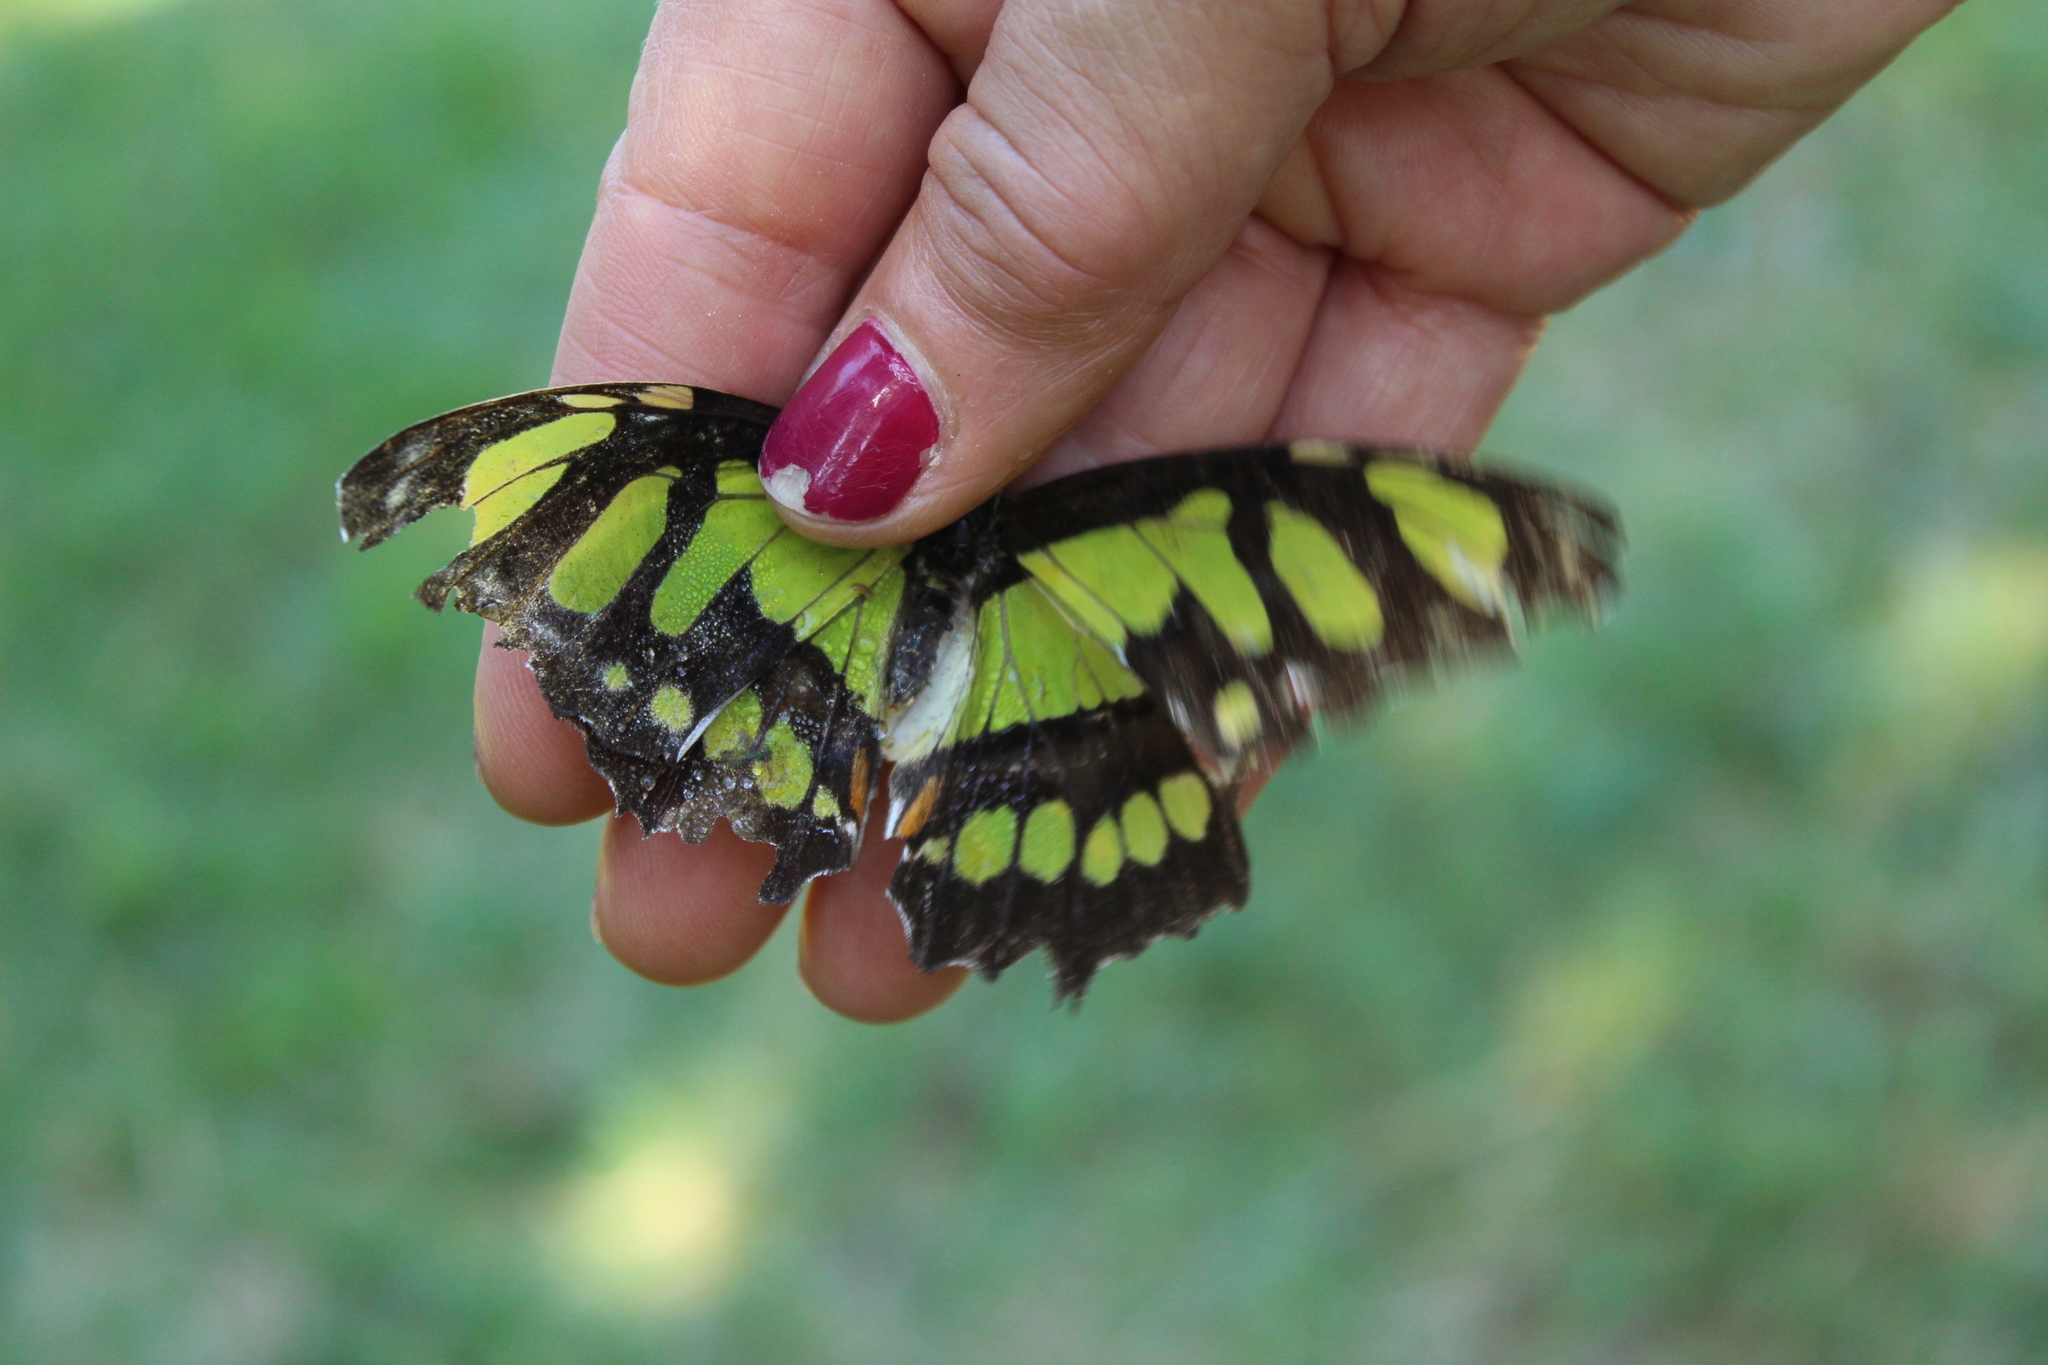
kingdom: Animalia
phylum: Arthropoda
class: Insecta
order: Lepidoptera
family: Nymphalidae
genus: Siproeta
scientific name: Siproeta stelenes
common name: Malachite
